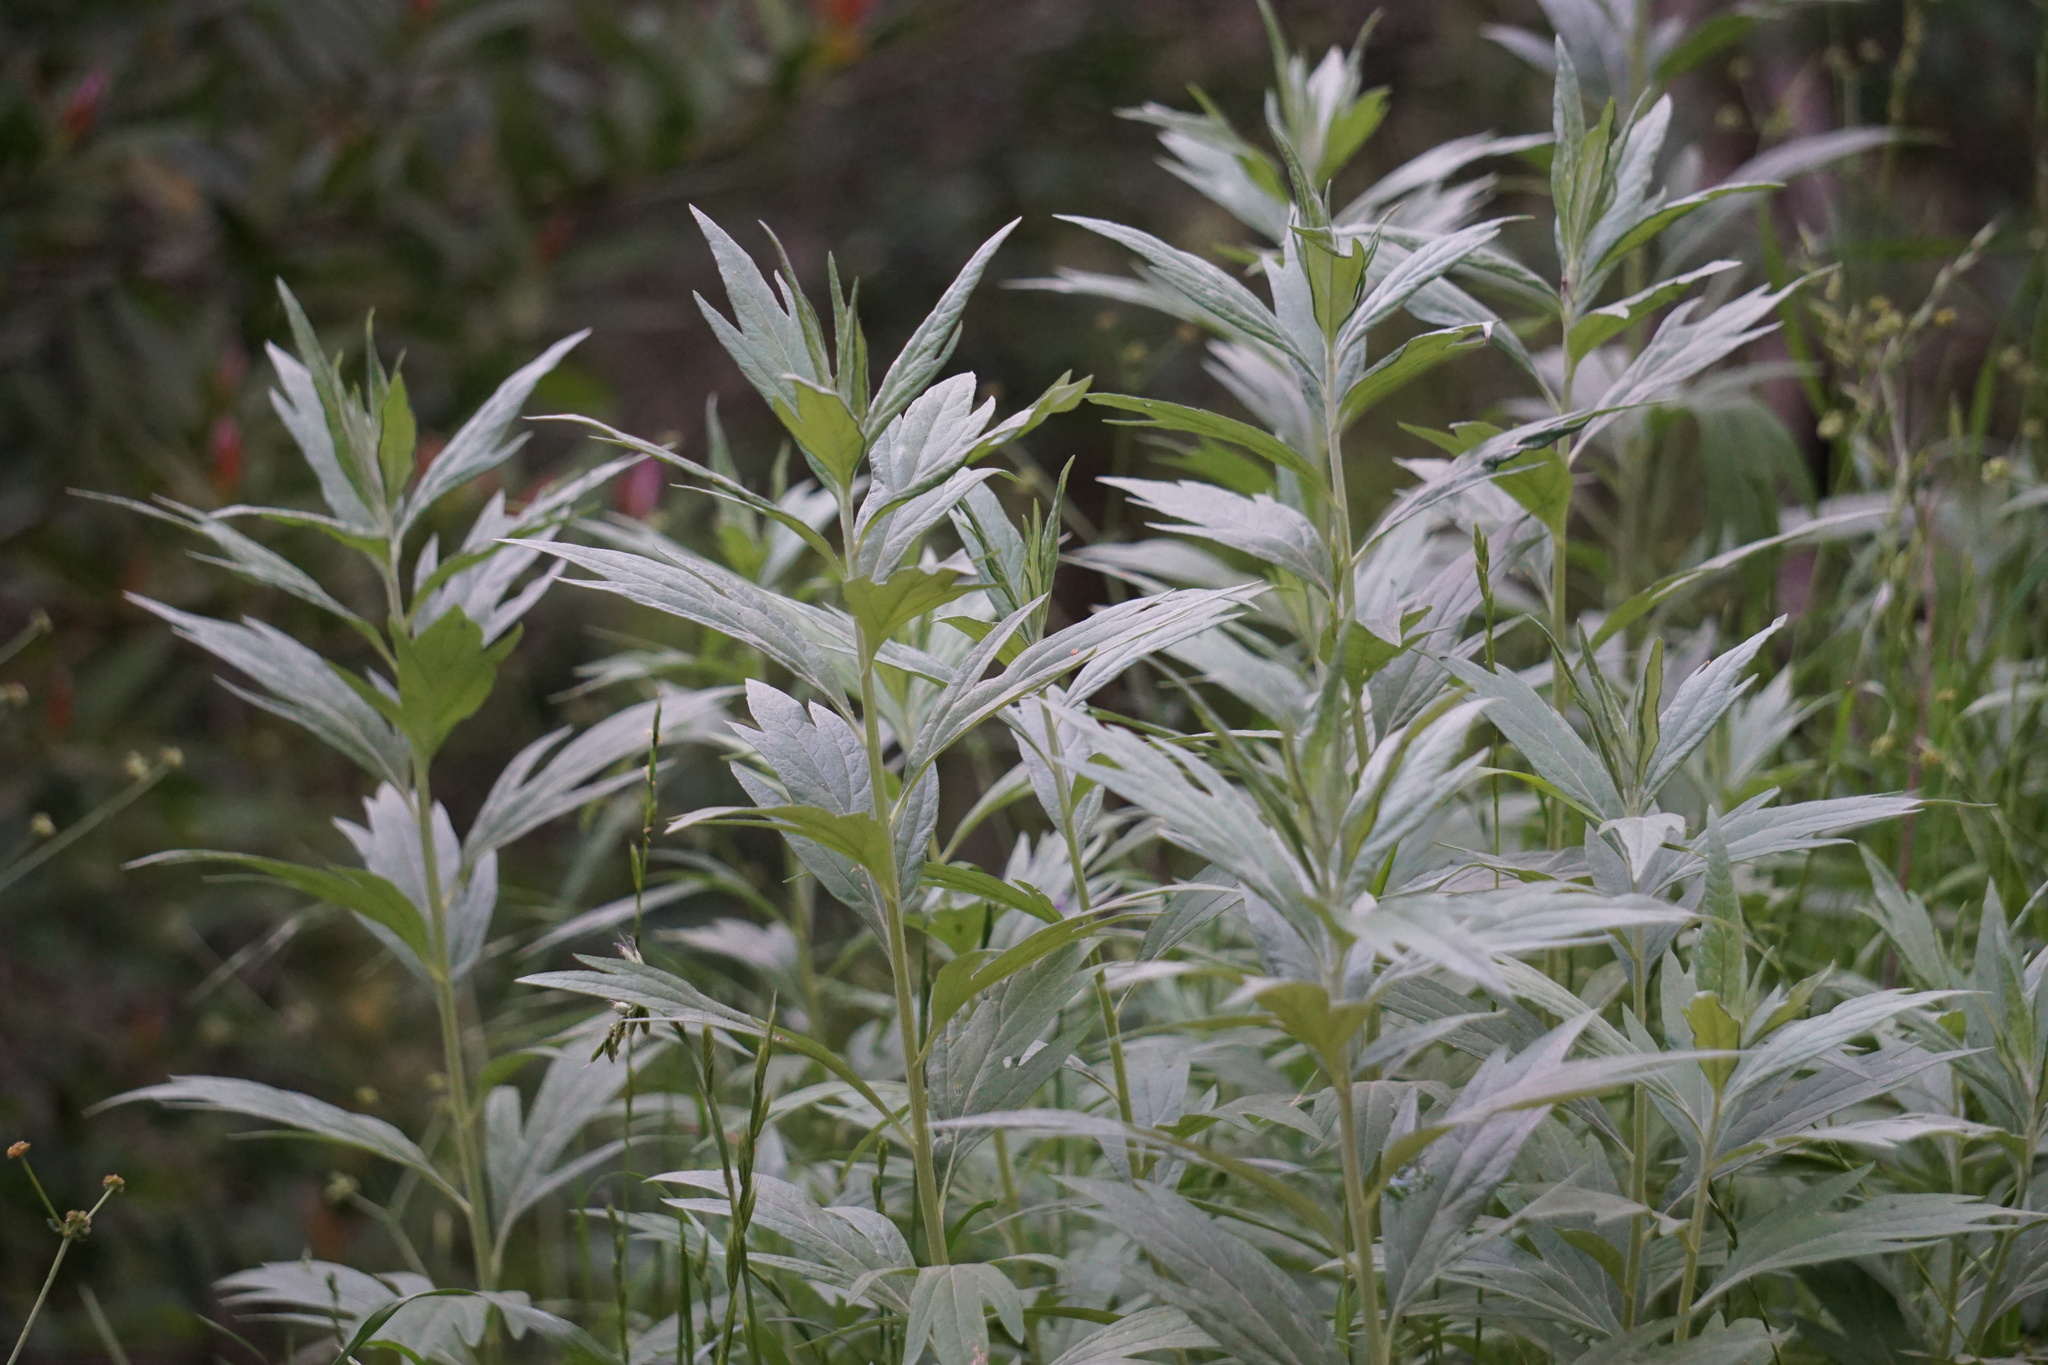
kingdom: Plantae
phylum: Tracheophyta
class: Magnoliopsida
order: Asterales
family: Asteraceae
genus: Artemisia
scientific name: Artemisia douglasiana
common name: Northwest mugwort
